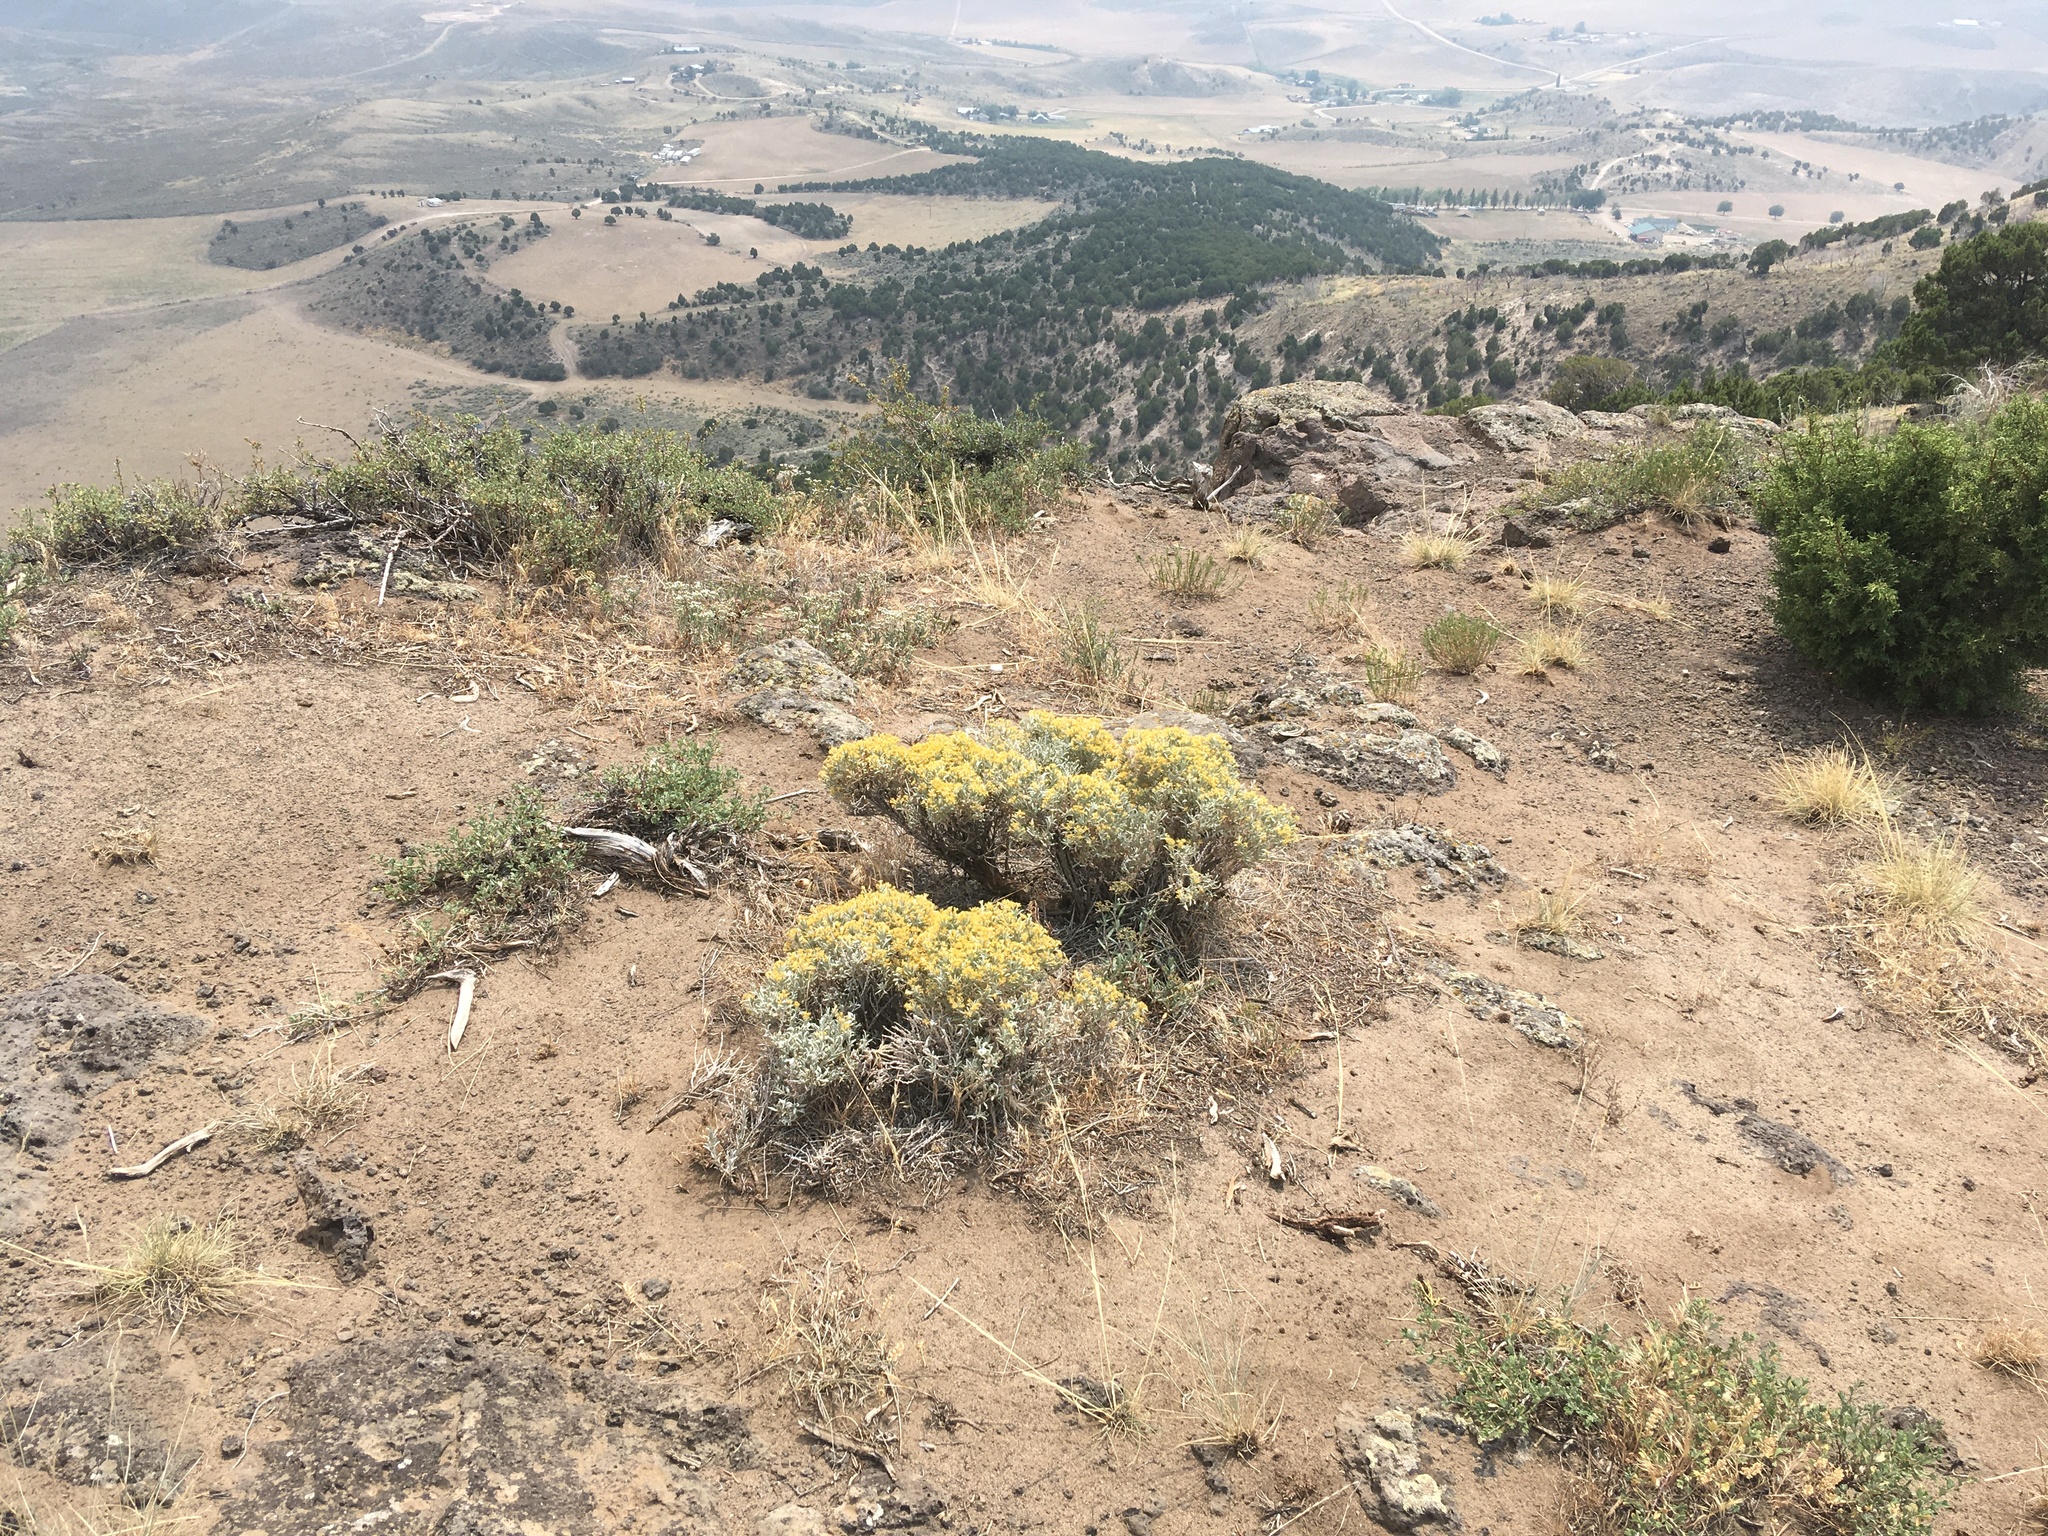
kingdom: Plantae
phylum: Tracheophyta
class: Magnoliopsida
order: Asterales
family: Asteraceae
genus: Tetradymia
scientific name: Tetradymia canescens
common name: Spineless horsebrush
